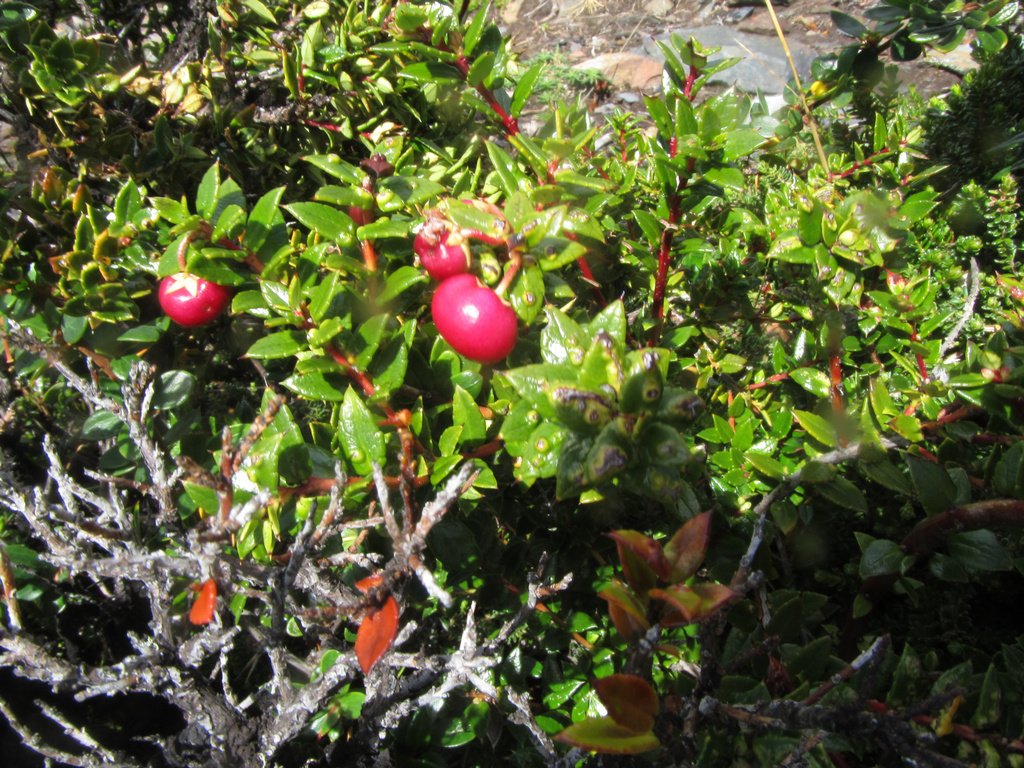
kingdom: Plantae
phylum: Tracheophyta
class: Magnoliopsida
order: Ericales
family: Ericaceae
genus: Gaultheria
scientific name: Gaultheria mucronata
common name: Prickly heath
